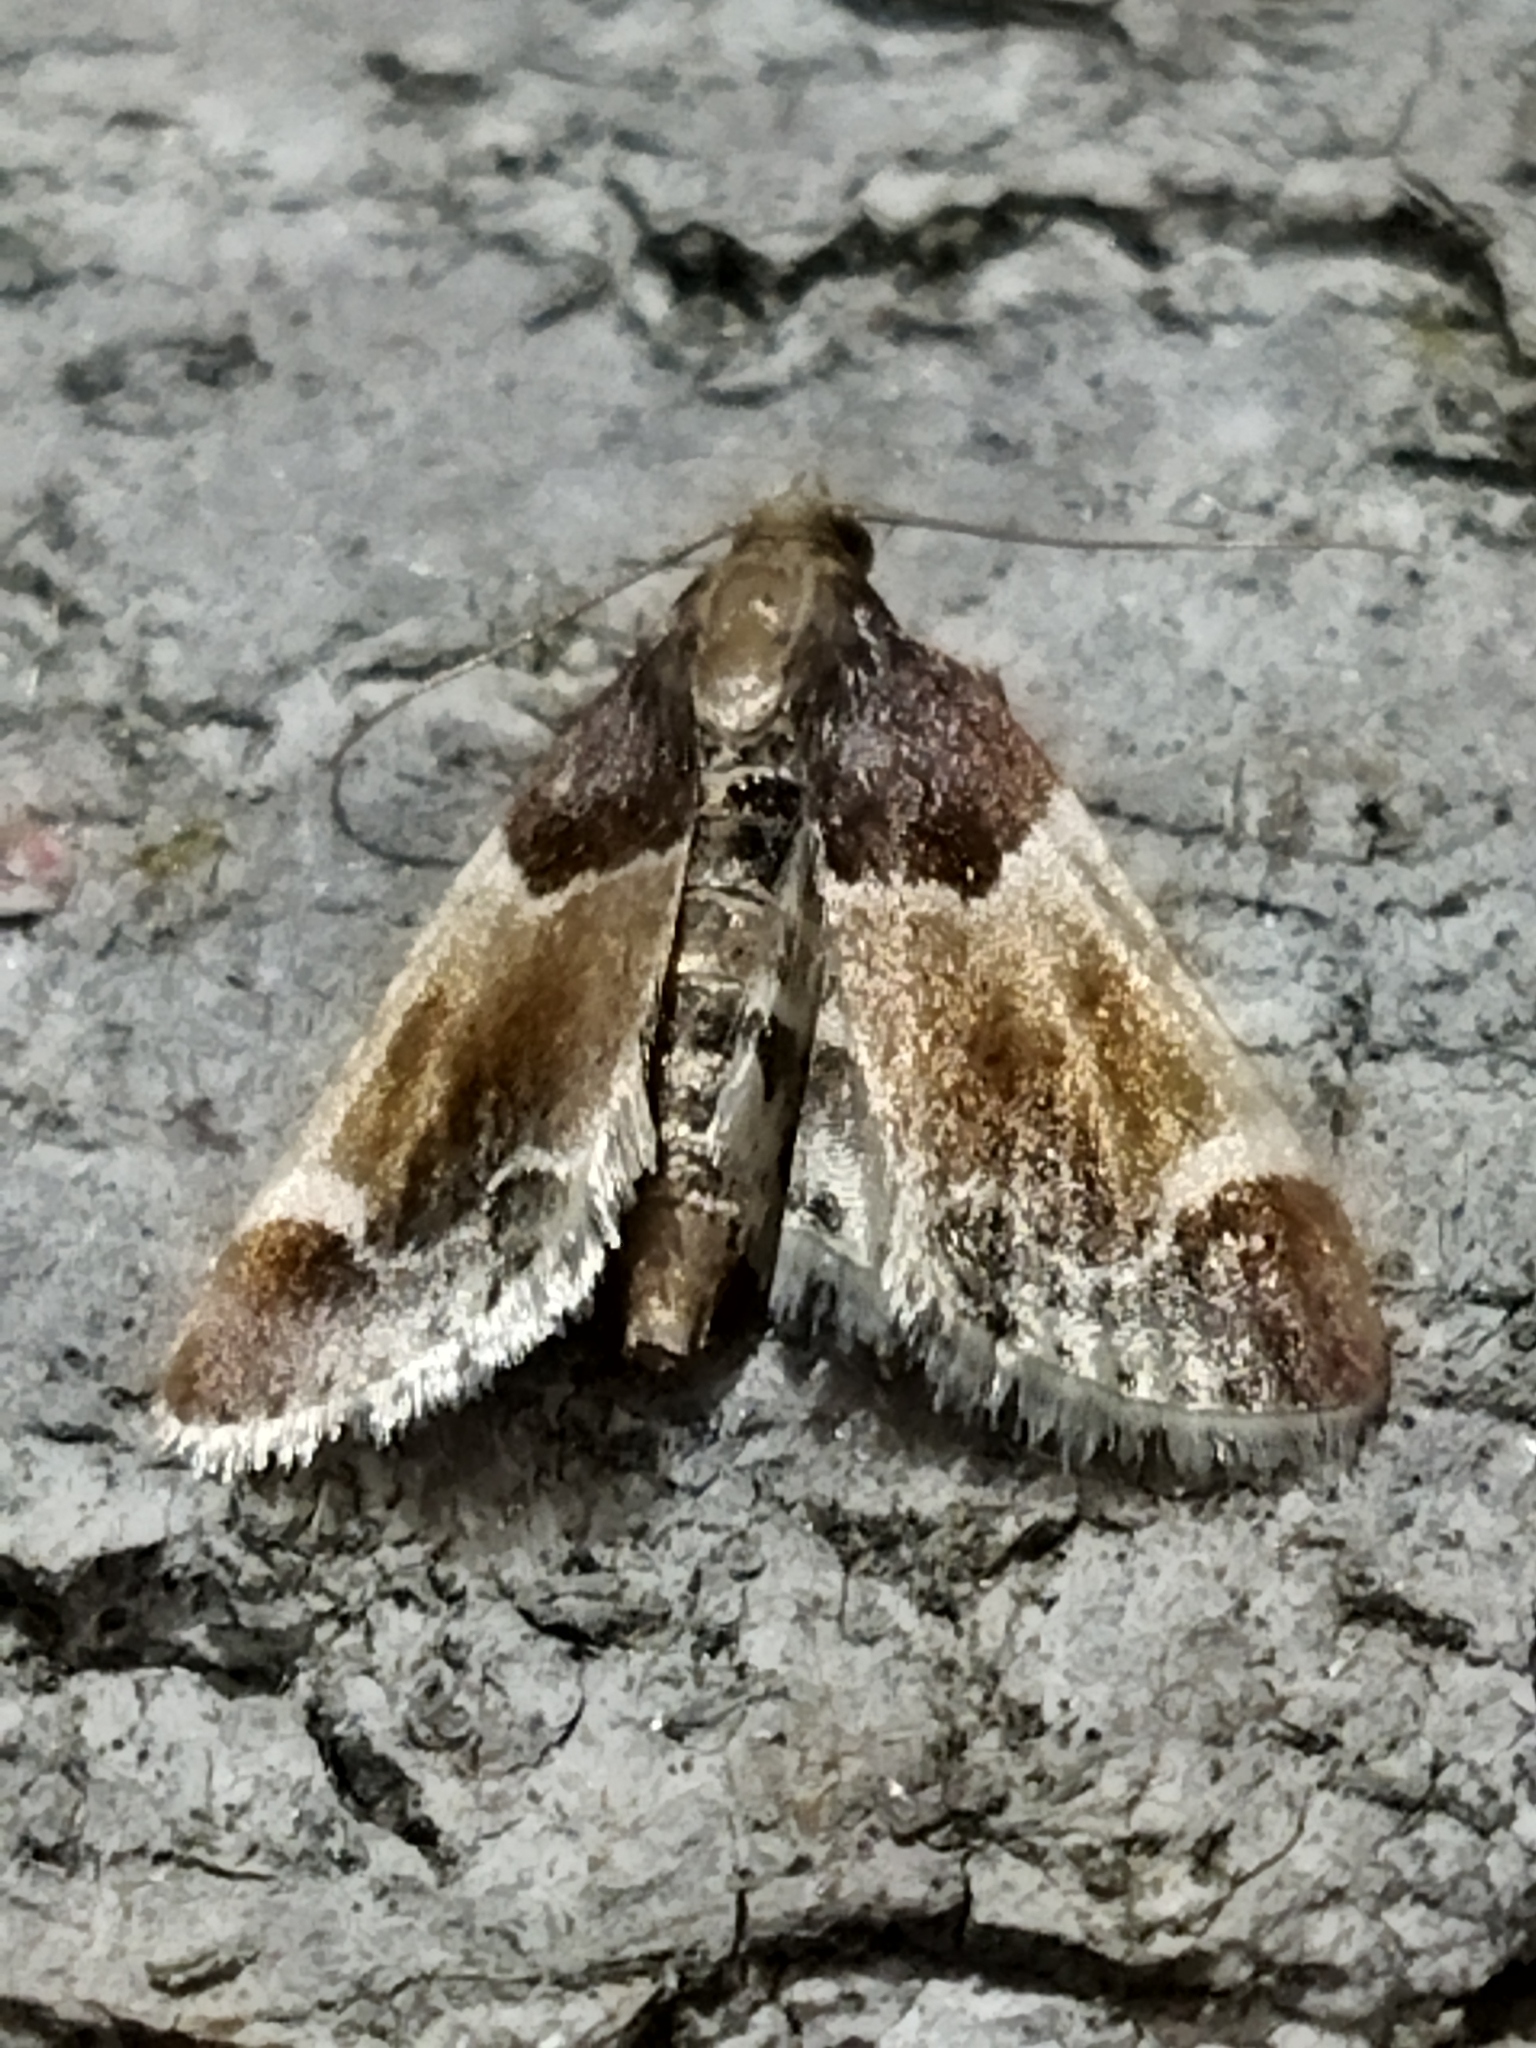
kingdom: Animalia
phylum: Arthropoda
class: Insecta
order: Lepidoptera
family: Pyralidae
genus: Pyralis
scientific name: Pyralis farinalis
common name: Meal moth
